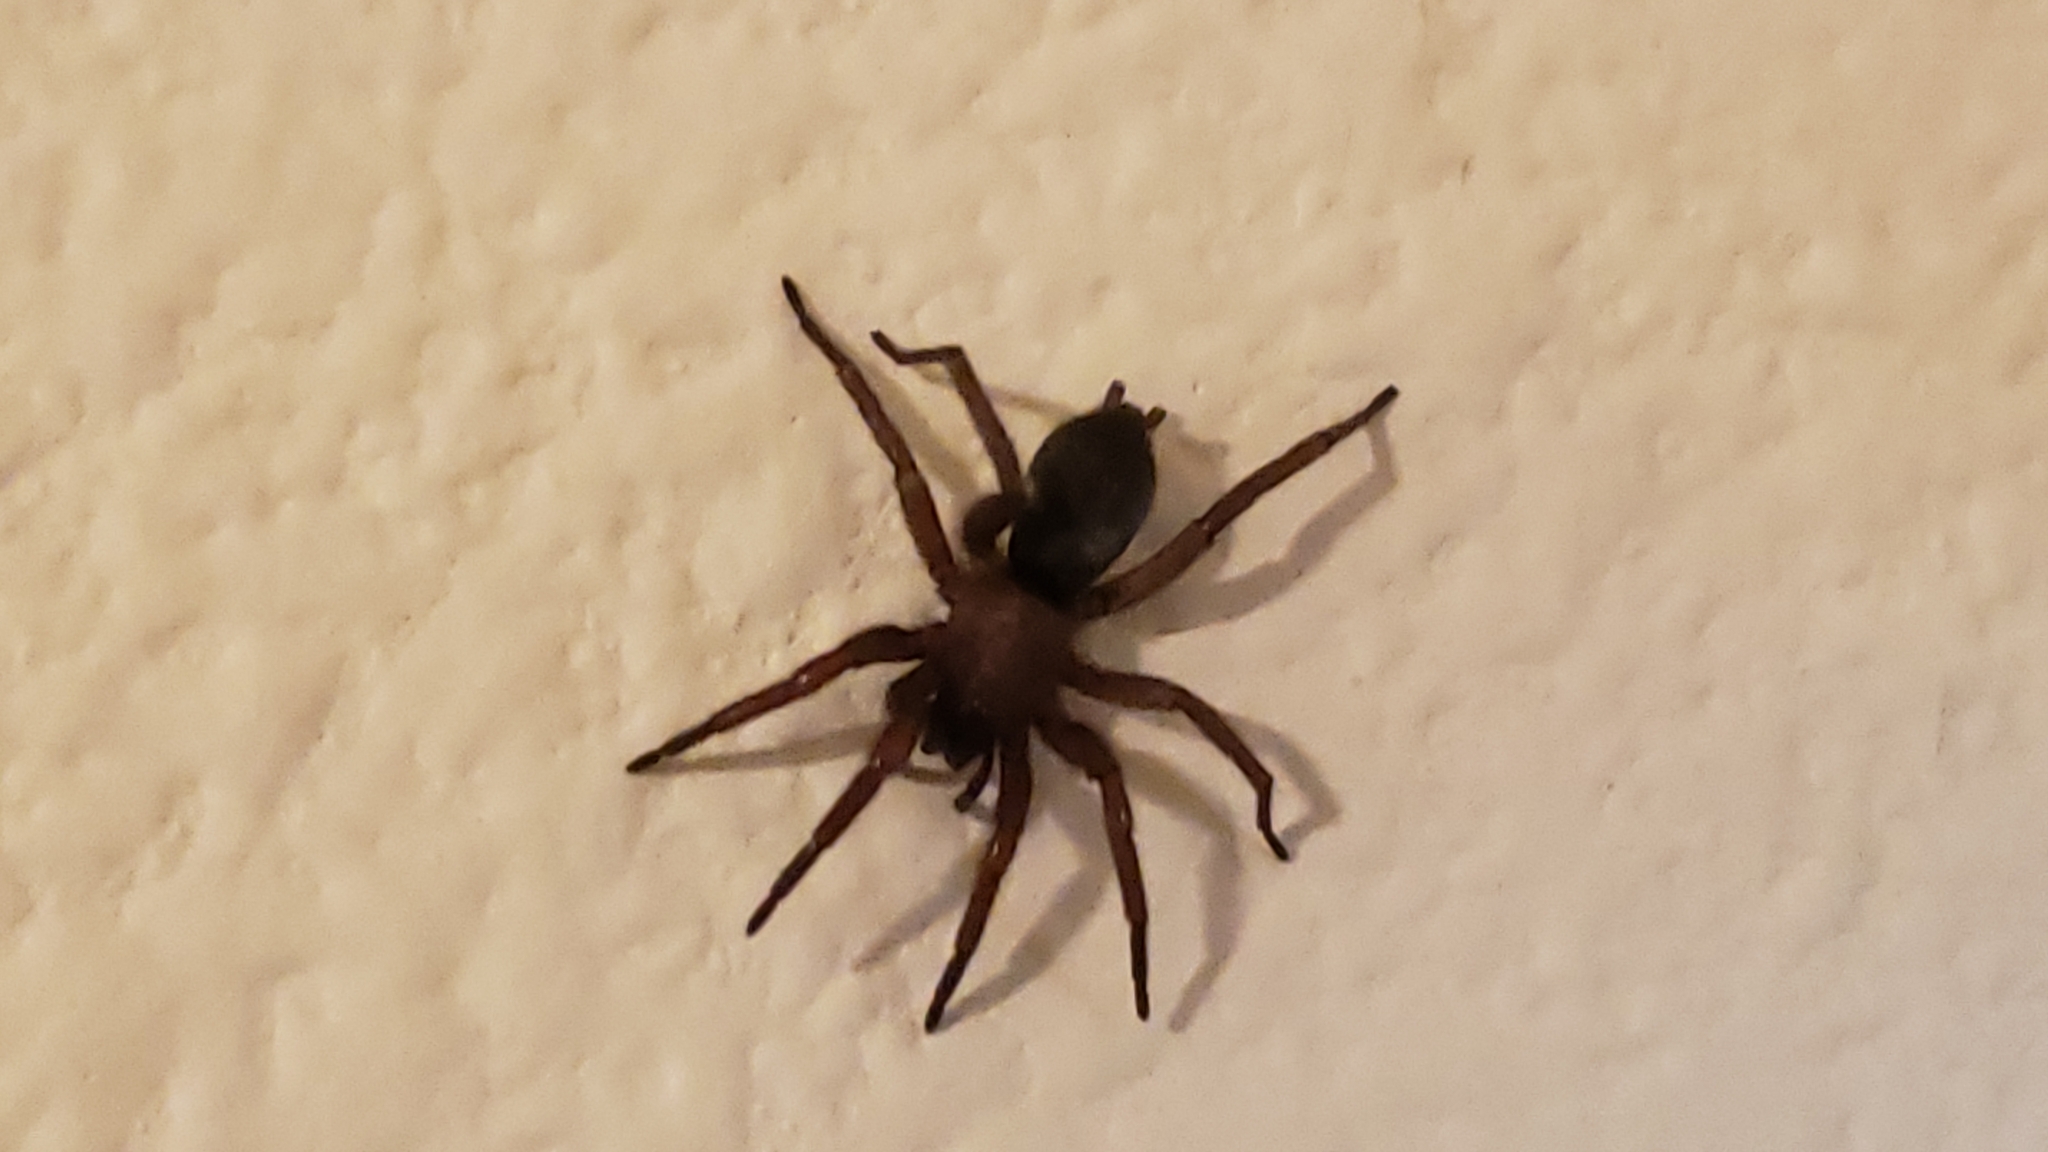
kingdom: Animalia
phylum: Arthropoda
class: Arachnida
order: Araneae
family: Gnaphosidae
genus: Scotophaeus
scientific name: Scotophaeus blackwalli
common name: Mouse spider
